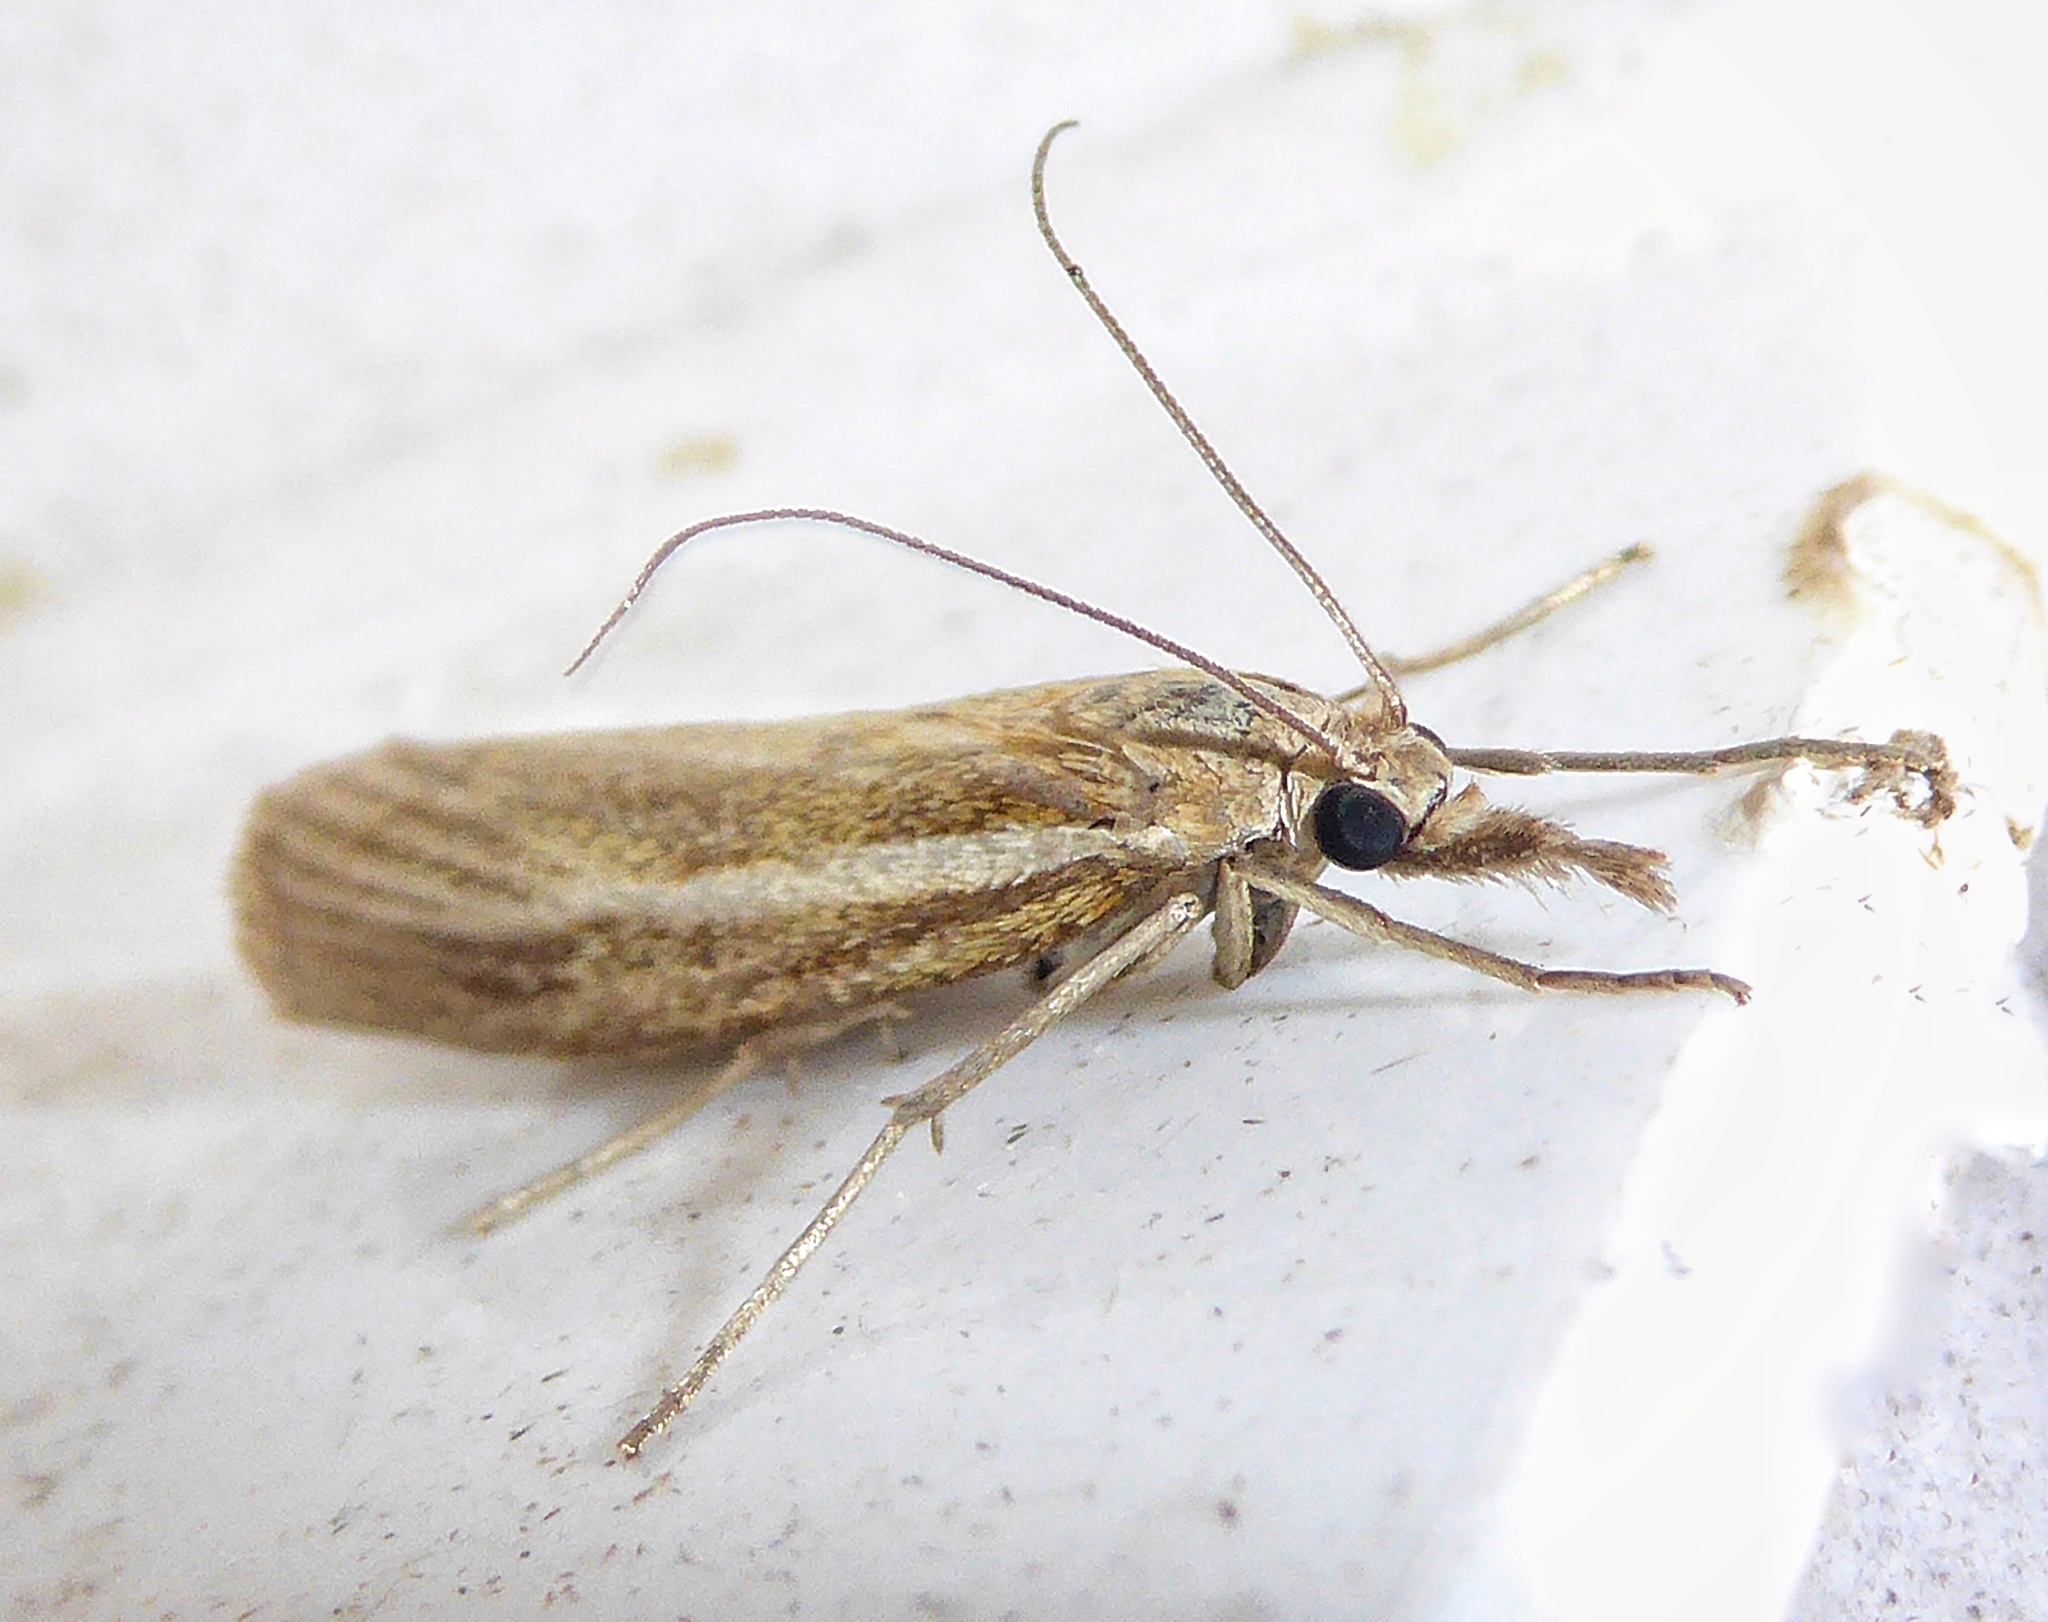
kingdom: Animalia
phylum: Arthropoda
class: Insecta
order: Lepidoptera
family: Crambidae
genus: Agriphila
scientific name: Agriphila tristellus
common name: Common grass-veneer
